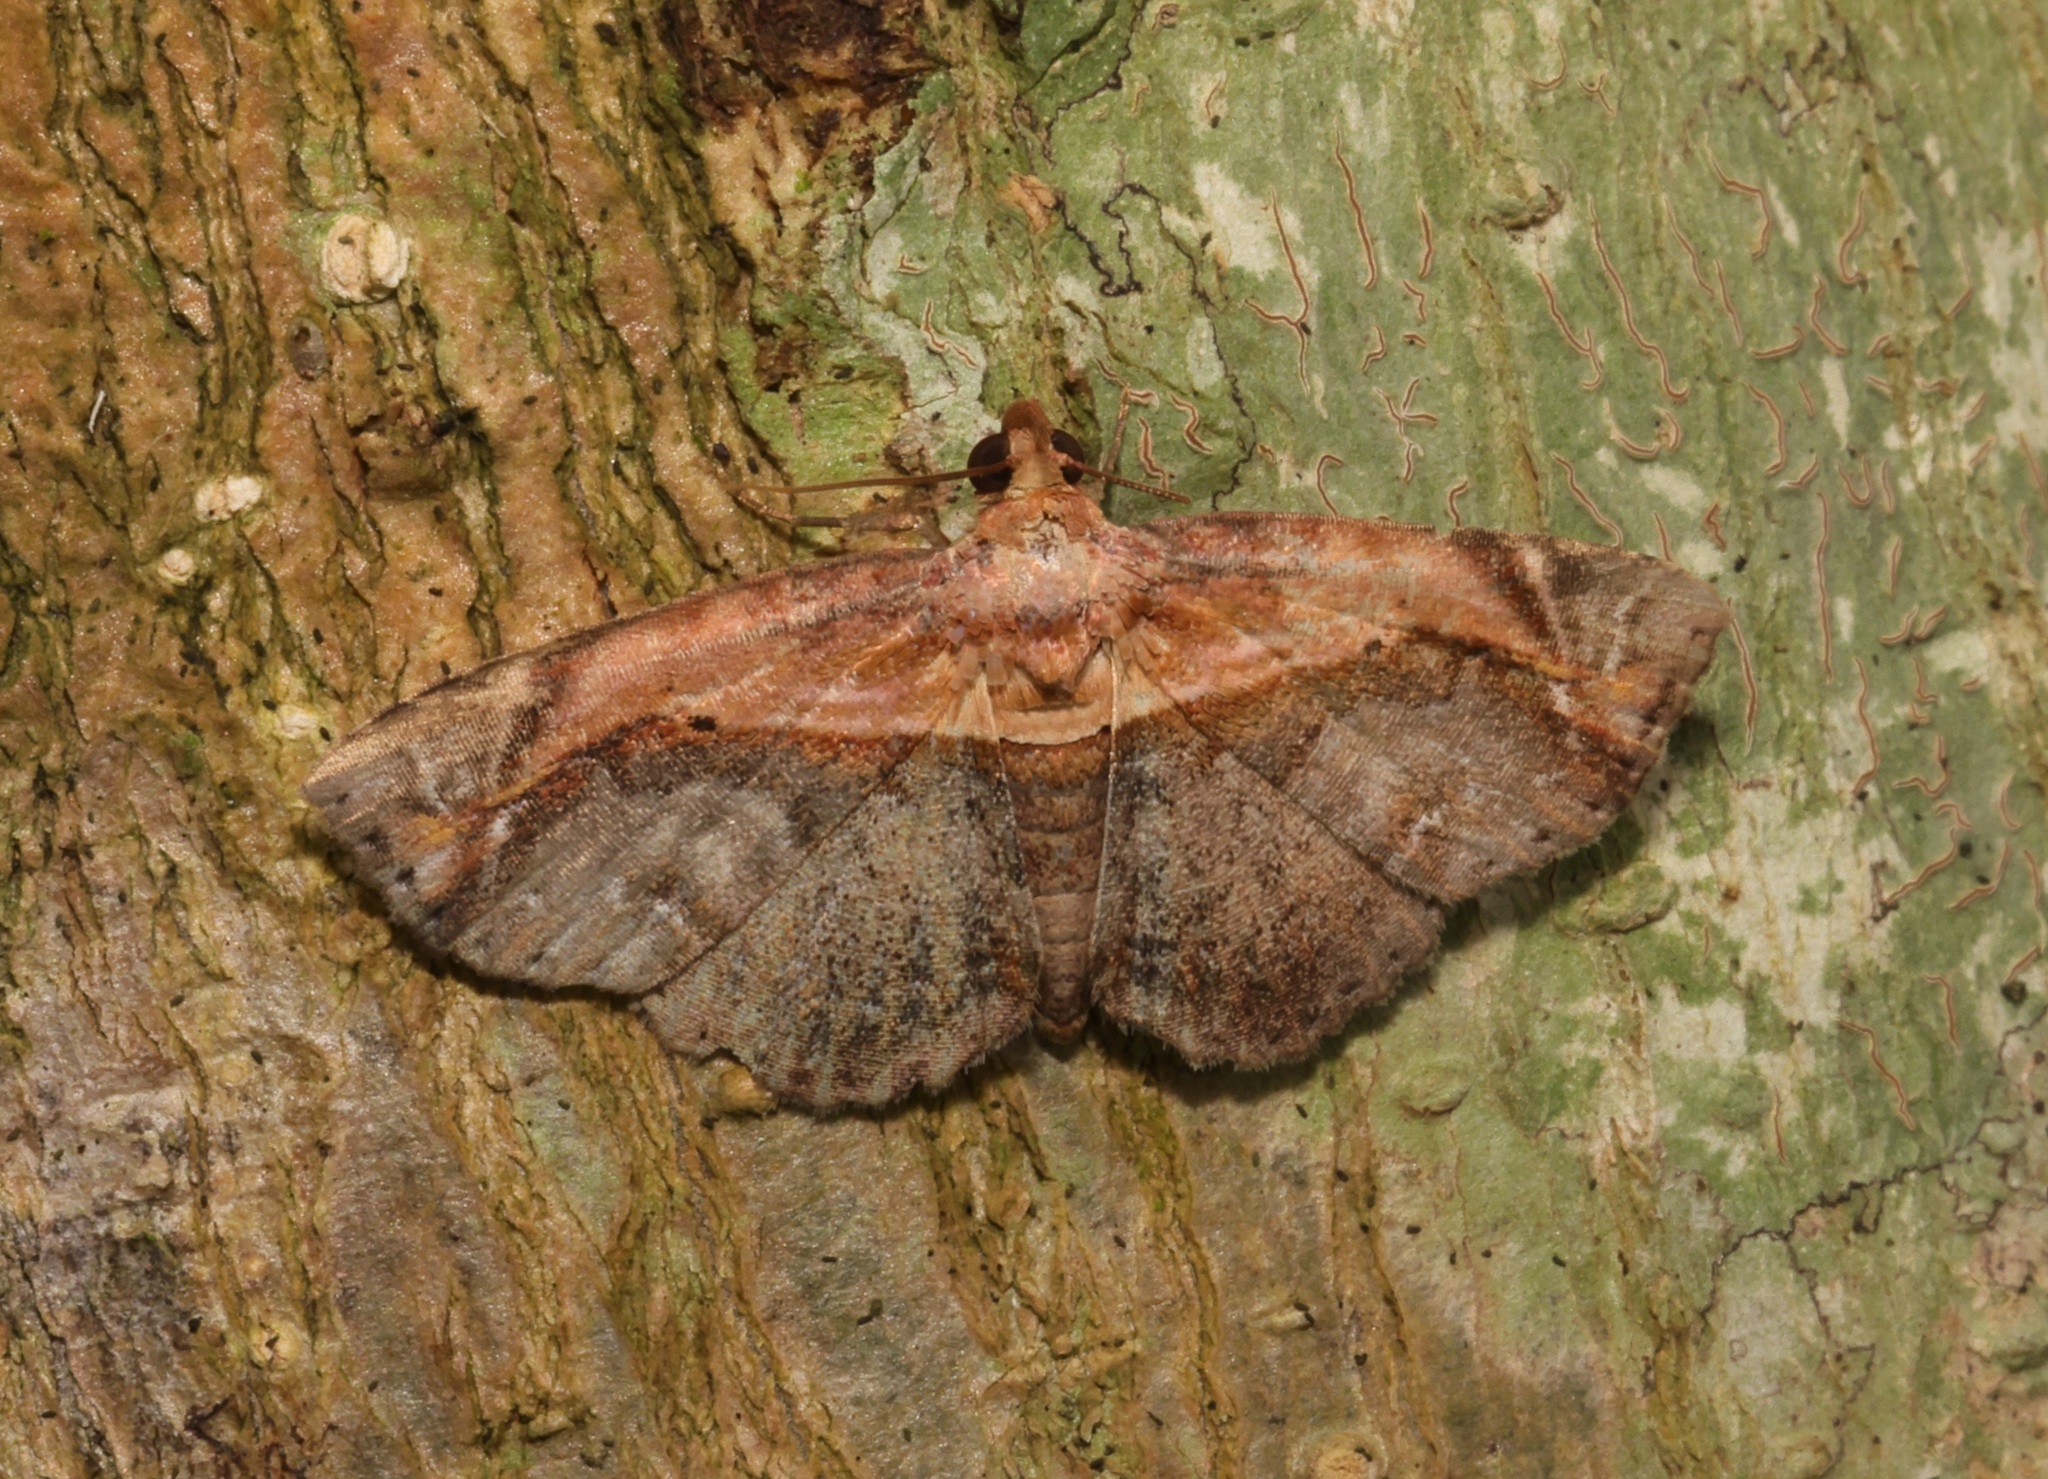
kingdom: Animalia
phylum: Arthropoda
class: Insecta
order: Lepidoptera
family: Noctuidae
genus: Lophoruza
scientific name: Lophoruza pulcherrima
